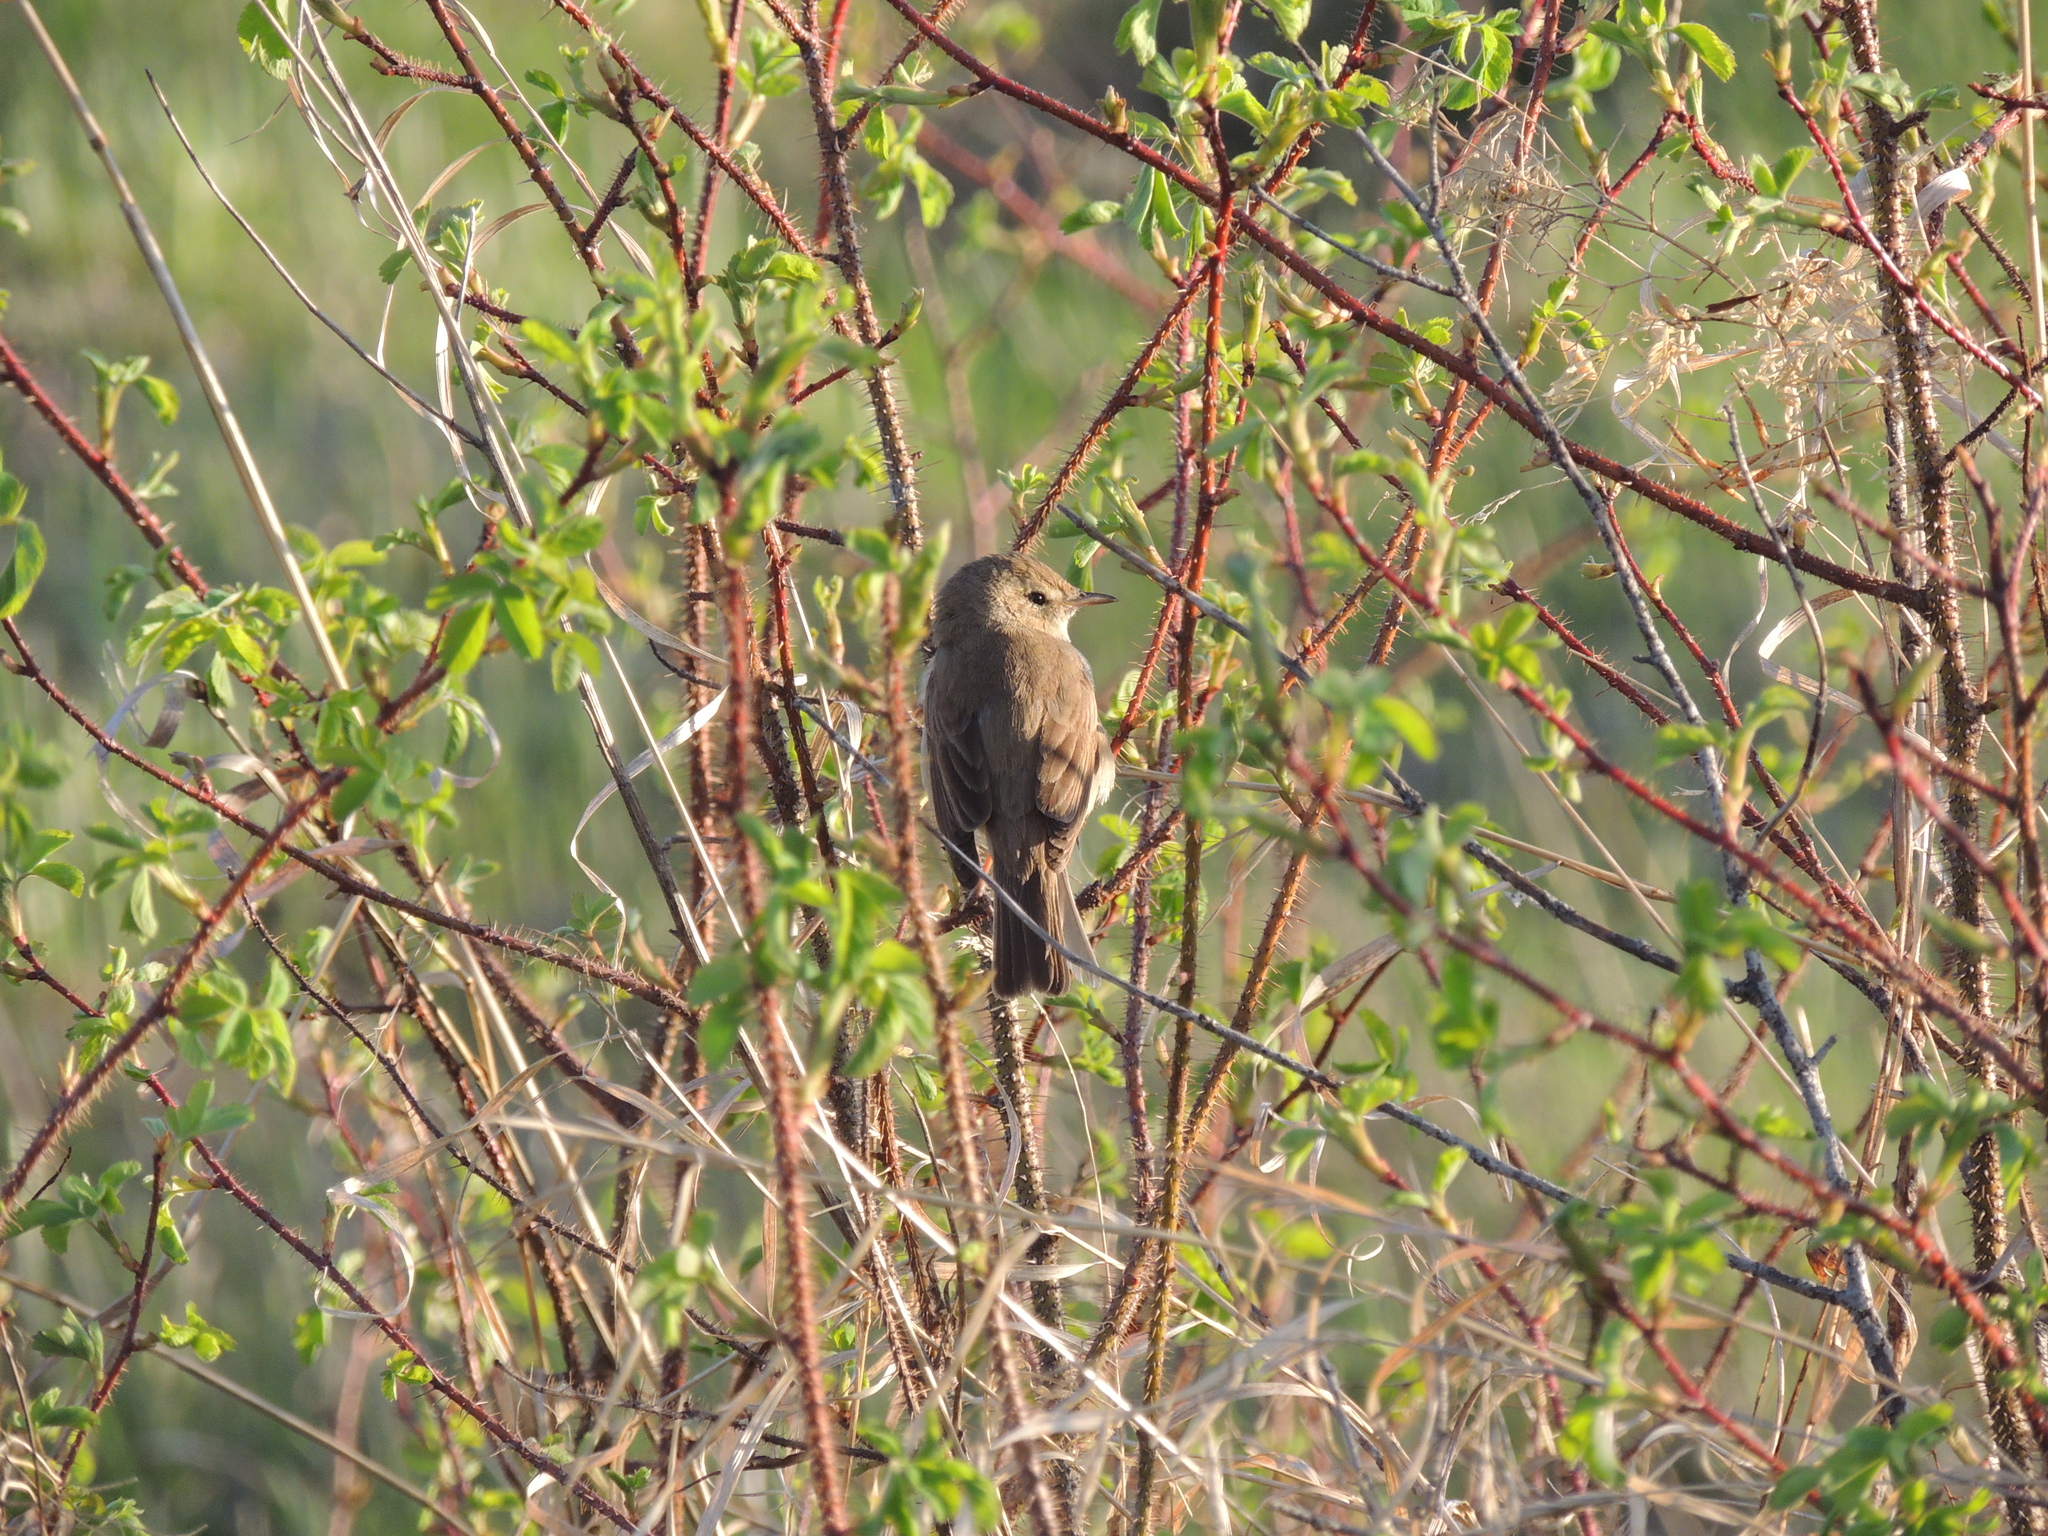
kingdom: Animalia
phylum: Chordata
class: Aves
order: Passeriformes
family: Acrocephalidae
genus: Iduna
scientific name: Iduna caligata
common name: Booted warbler
